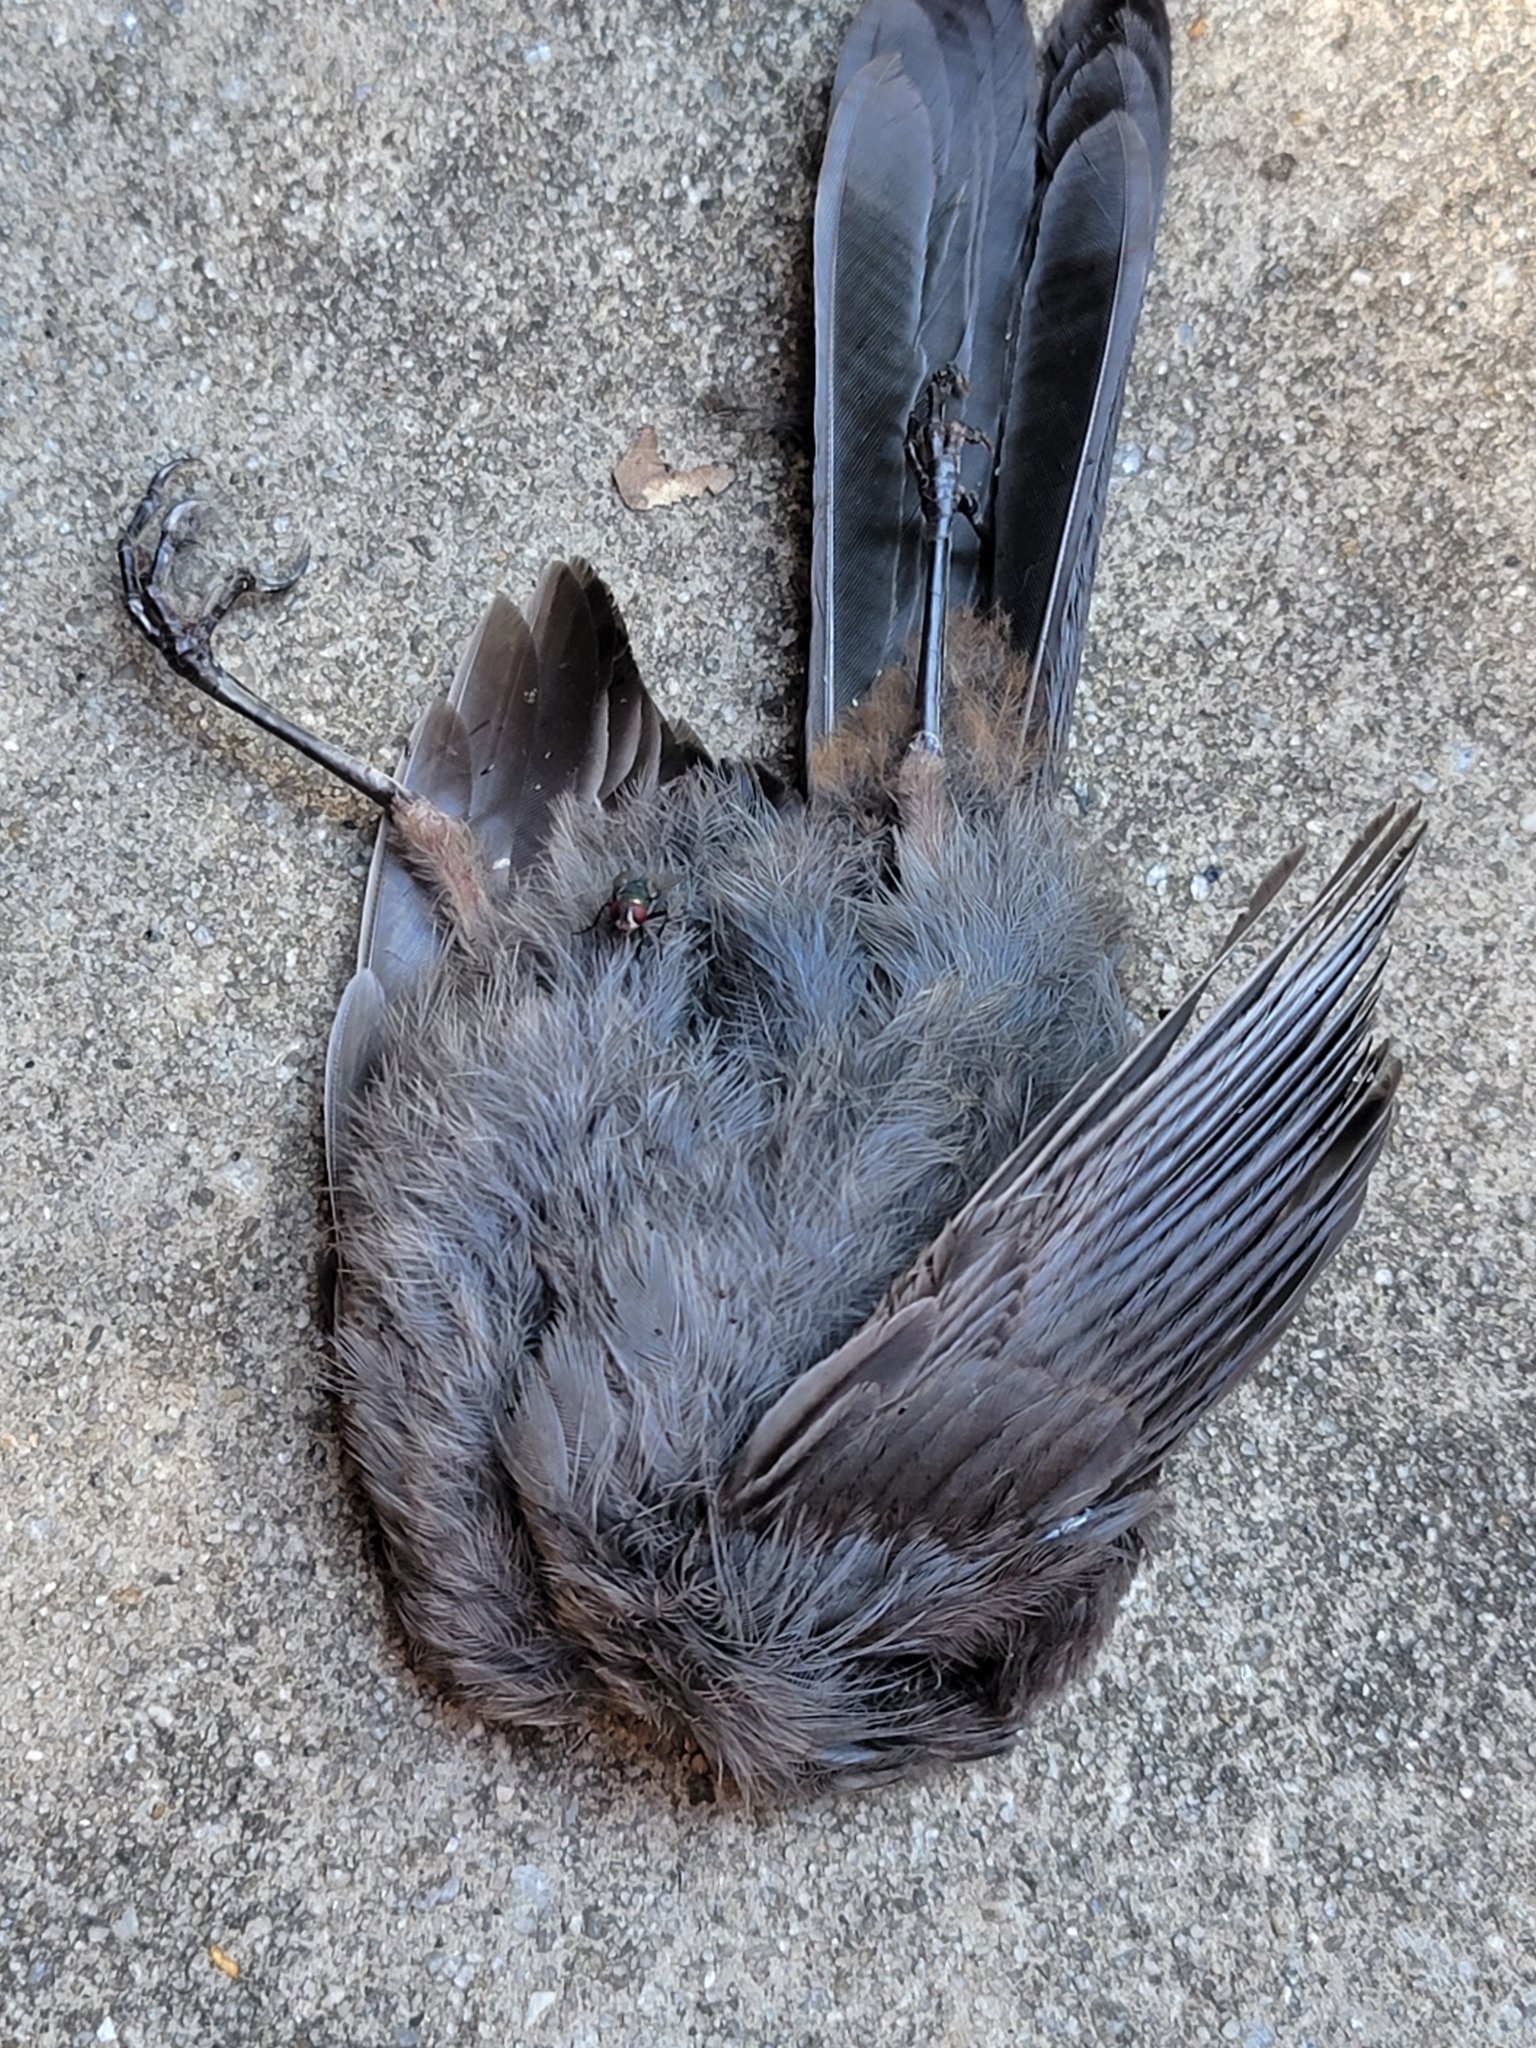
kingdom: Animalia
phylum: Chordata
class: Aves
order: Passeriformes
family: Mimidae
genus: Dumetella
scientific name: Dumetella carolinensis
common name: Gray catbird
